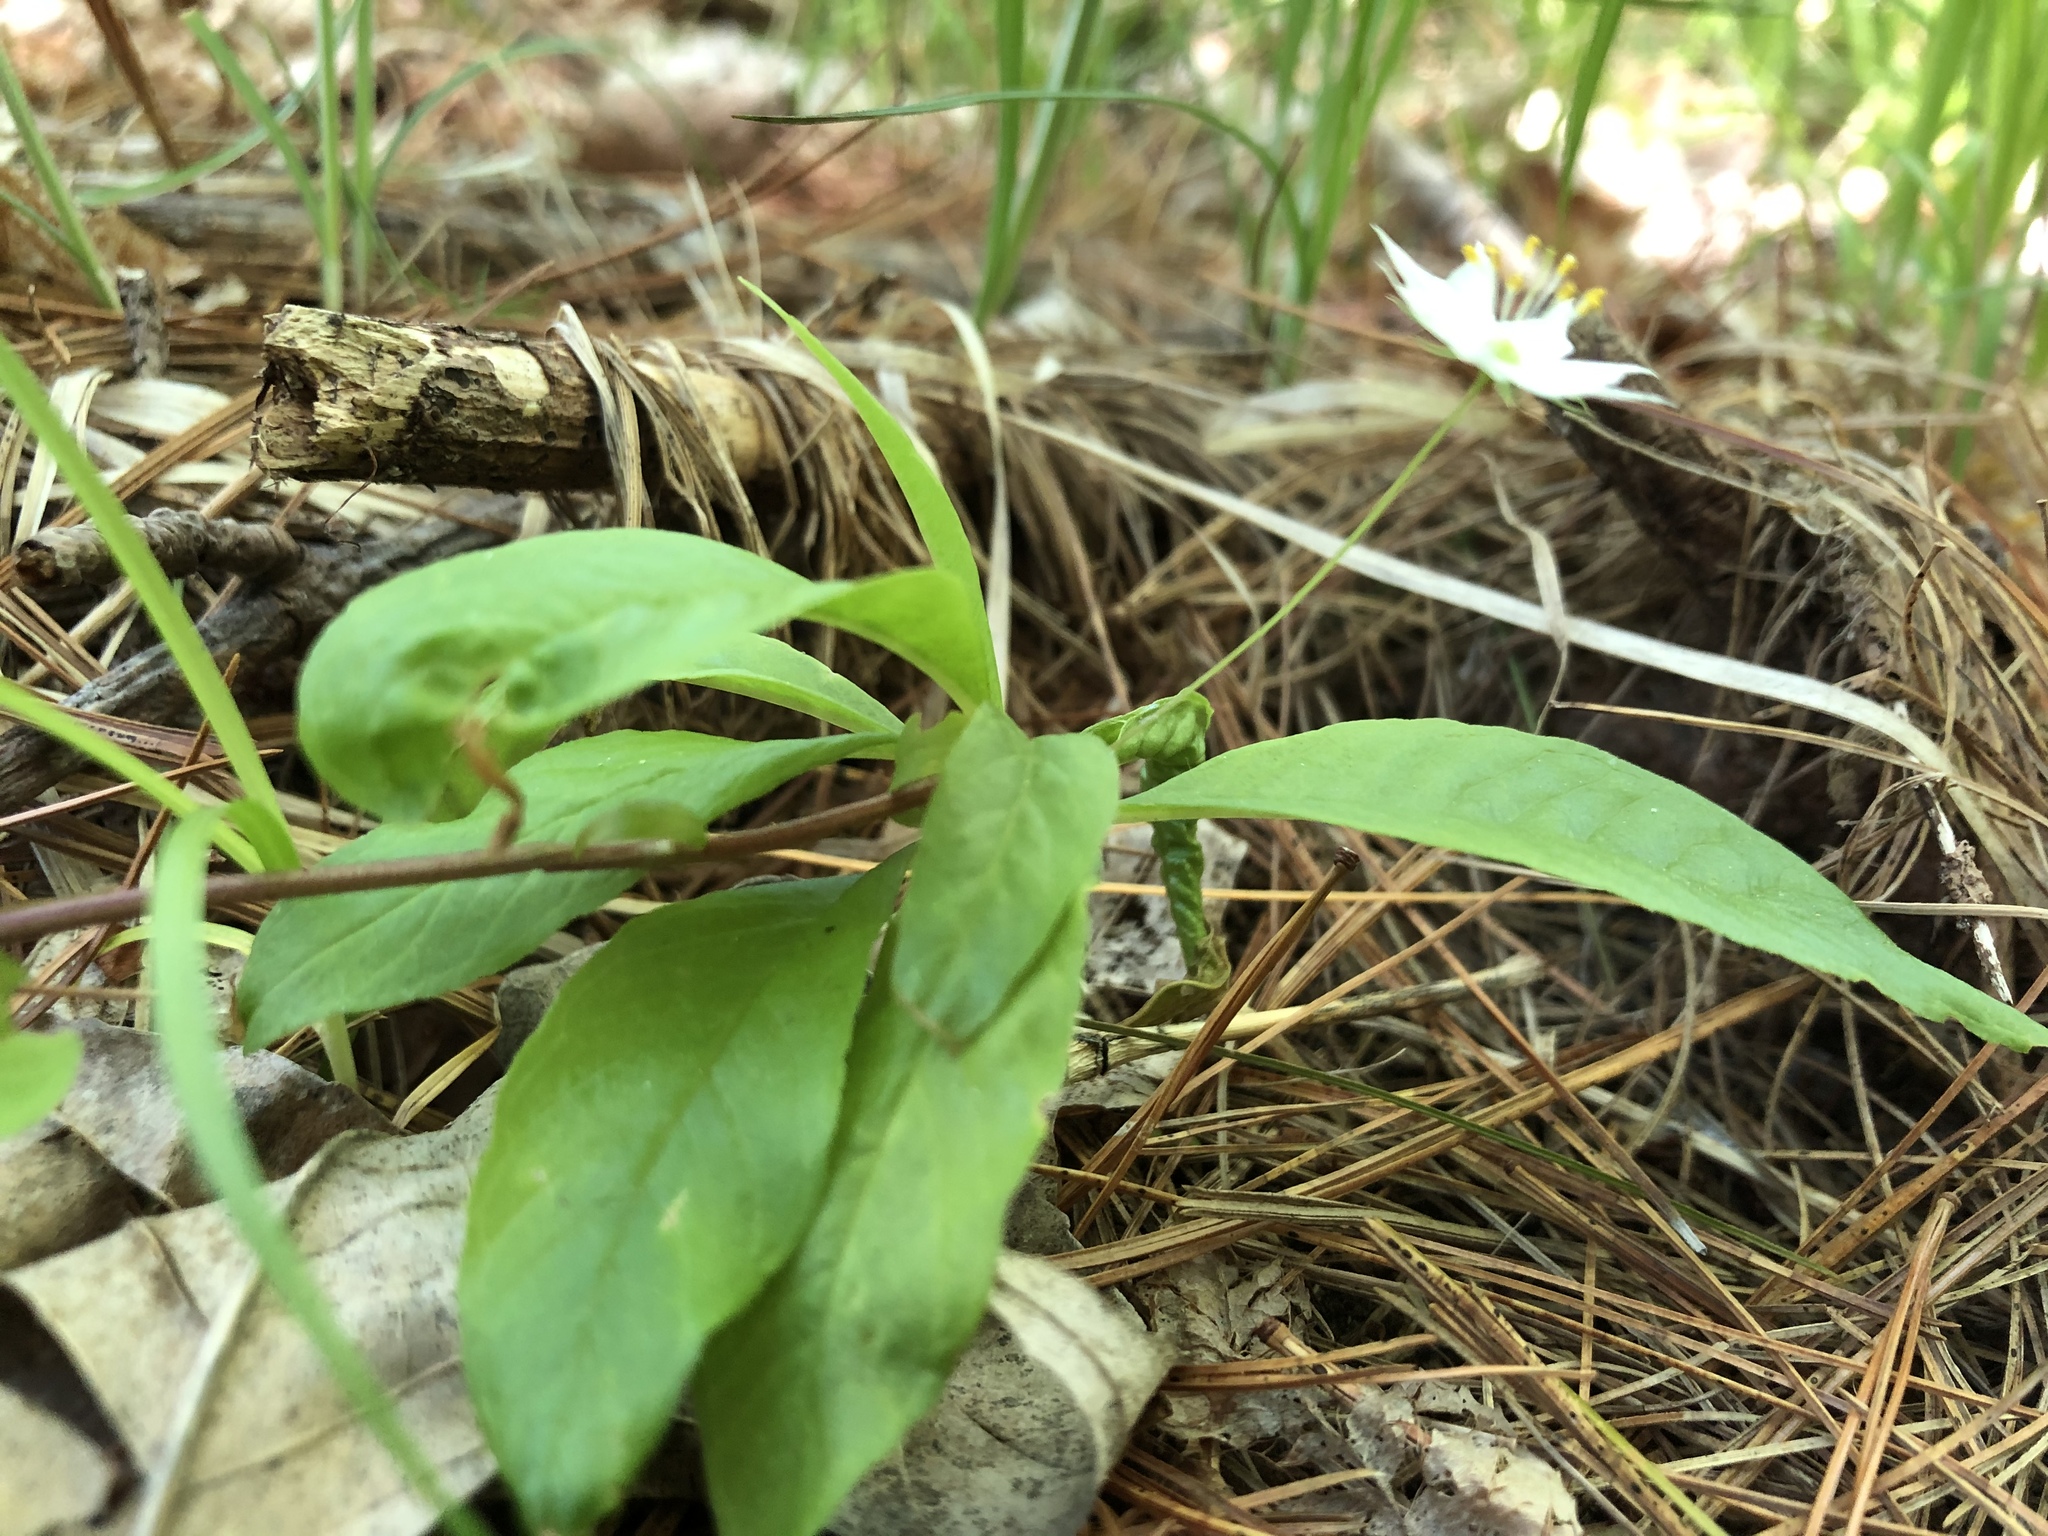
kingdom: Plantae
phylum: Tracheophyta
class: Magnoliopsida
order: Ericales
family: Primulaceae
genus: Lysimachia
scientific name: Lysimachia borealis
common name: American starflower
